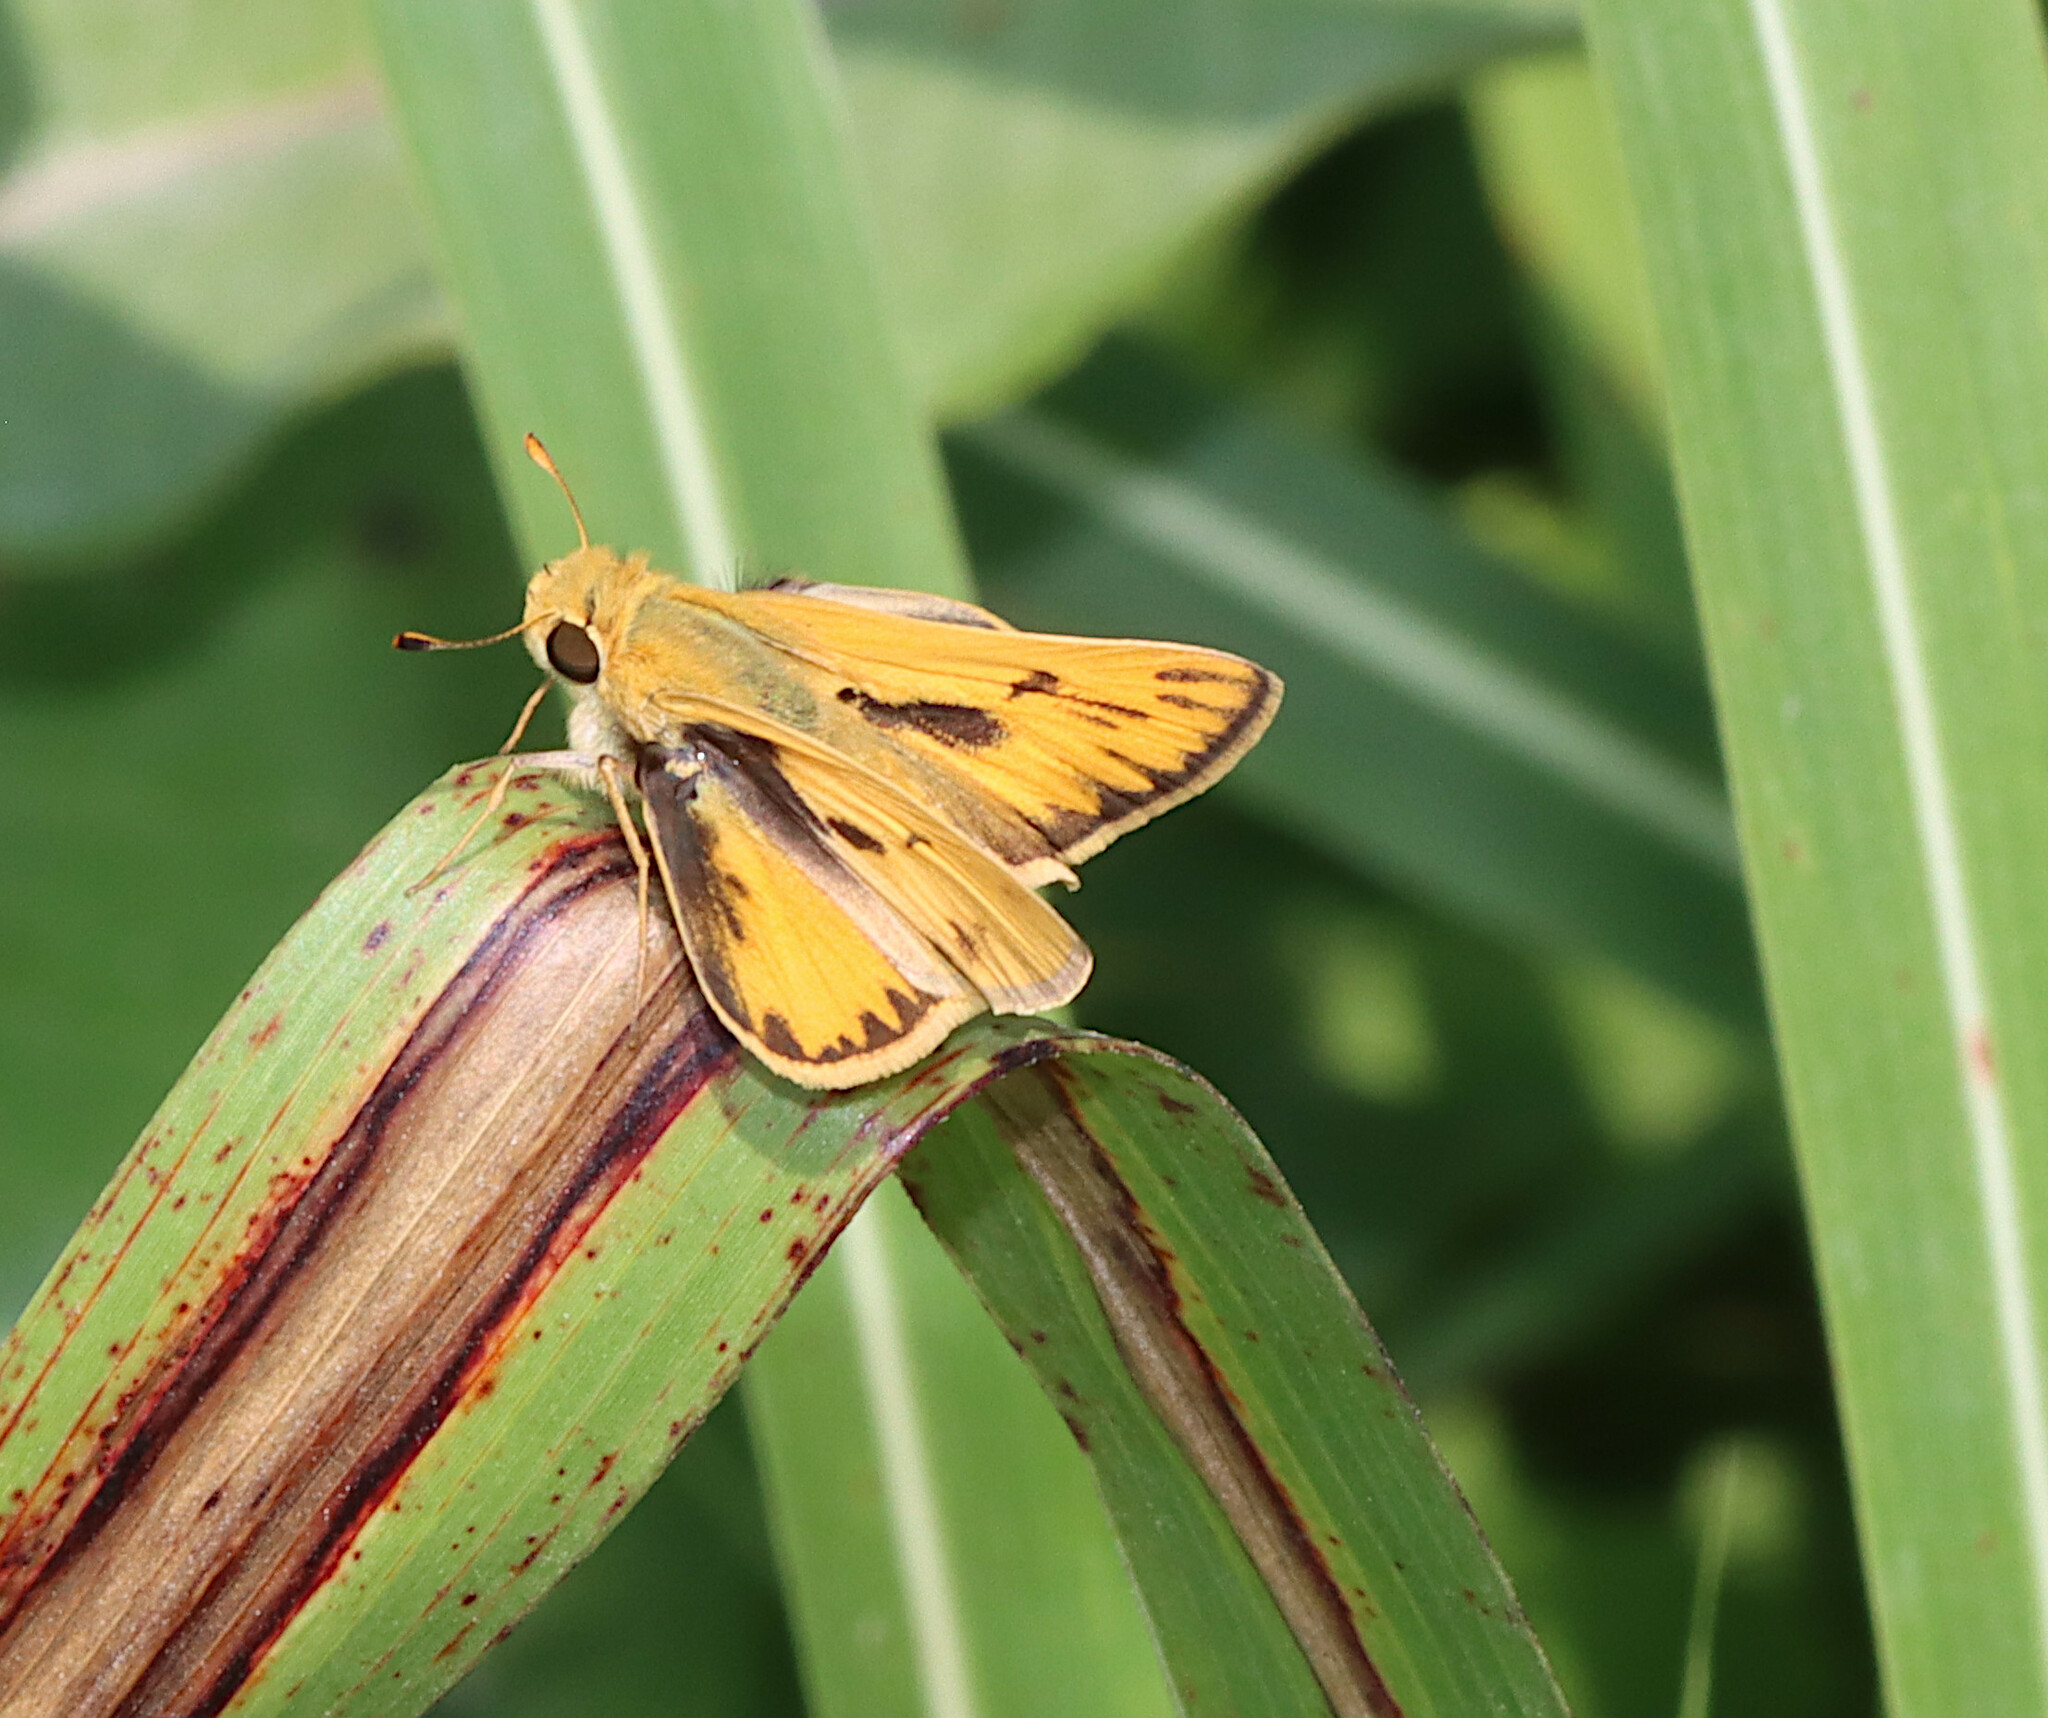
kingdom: Animalia
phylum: Arthropoda
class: Insecta
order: Lepidoptera
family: Hesperiidae
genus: Hylephila
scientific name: Hylephila phyleus
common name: Fiery skipper
